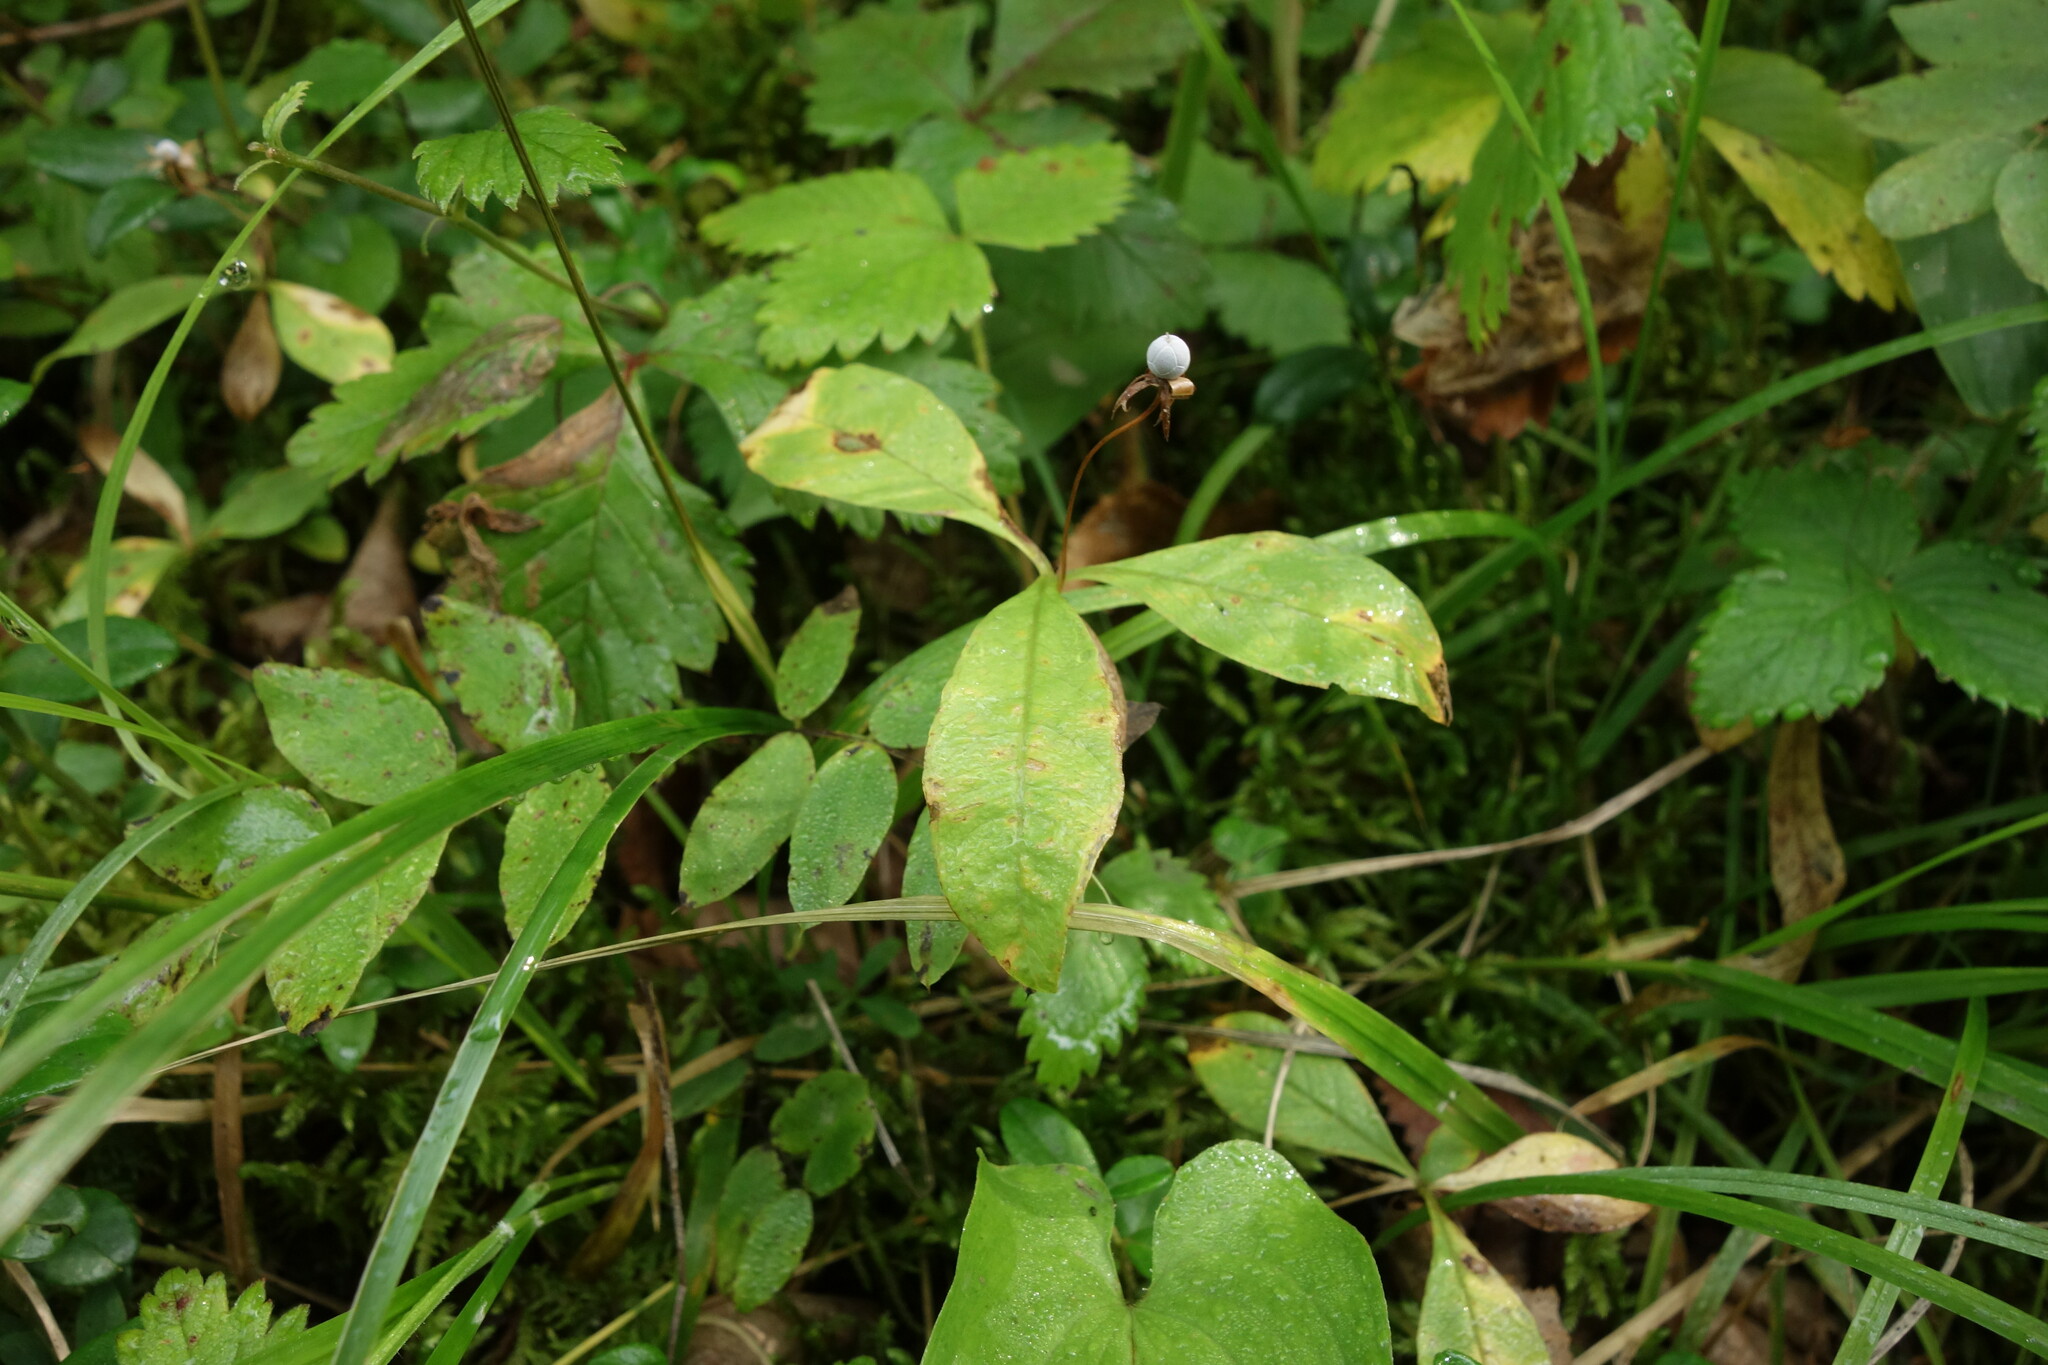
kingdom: Plantae
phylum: Tracheophyta
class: Magnoliopsida
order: Ericales
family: Primulaceae
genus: Lysimachia
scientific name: Lysimachia europaea
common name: Arctic starflower
